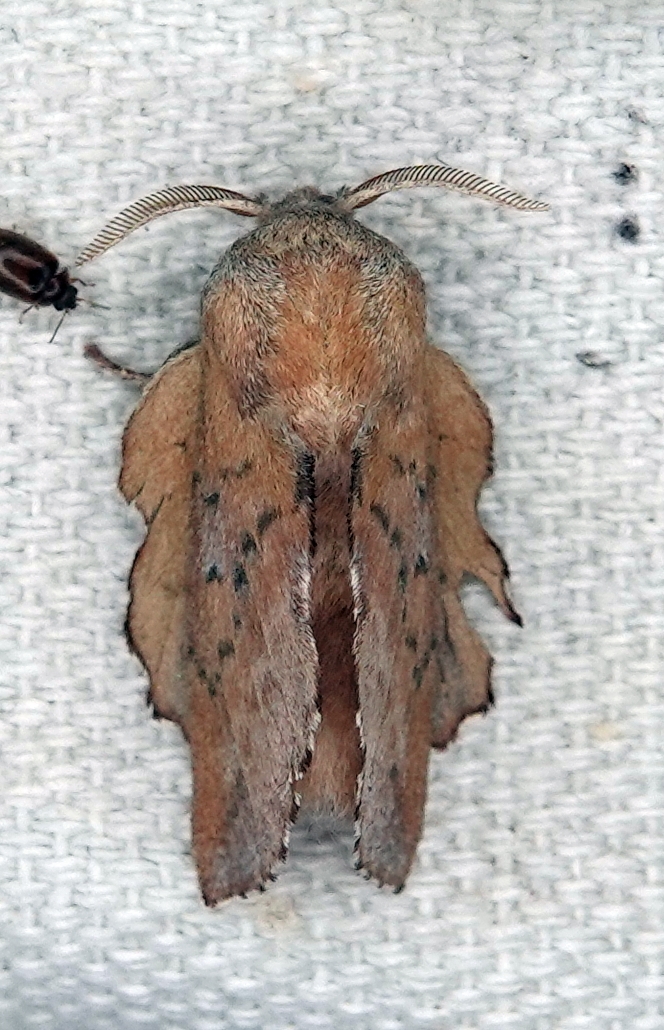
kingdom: Animalia
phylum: Arthropoda
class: Insecta
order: Lepidoptera
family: Lasiocampidae
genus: Phyllodesma
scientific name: Phyllodesma americana
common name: American lappet moth
